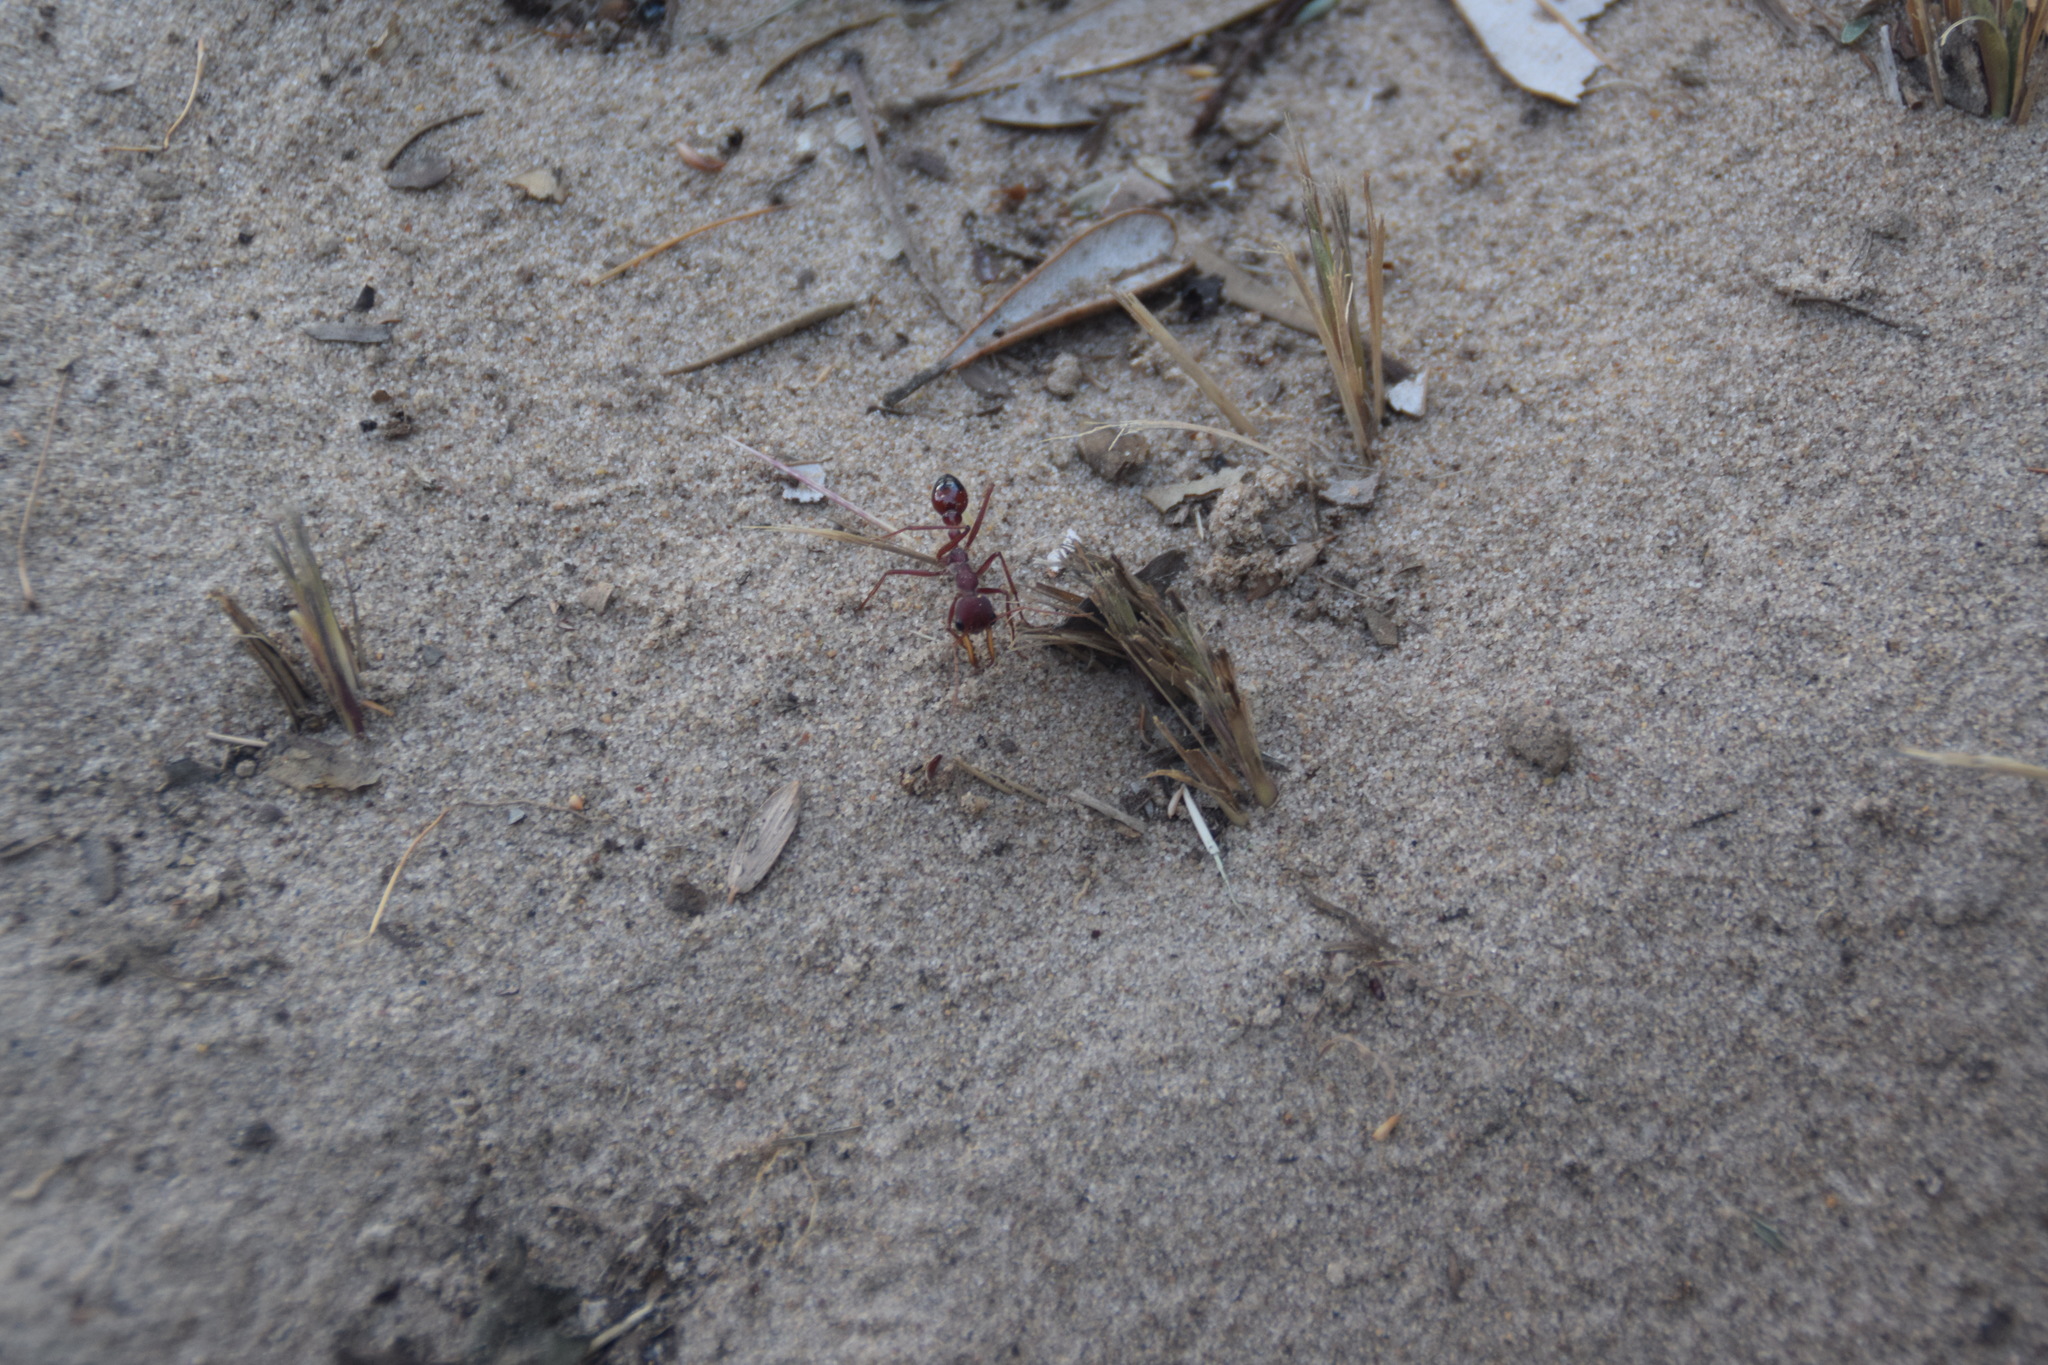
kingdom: Animalia
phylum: Arthropoda
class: Insecta
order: Hymenoptera
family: Formicidae
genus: Myrmecia
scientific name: Myrmecia gulosa
